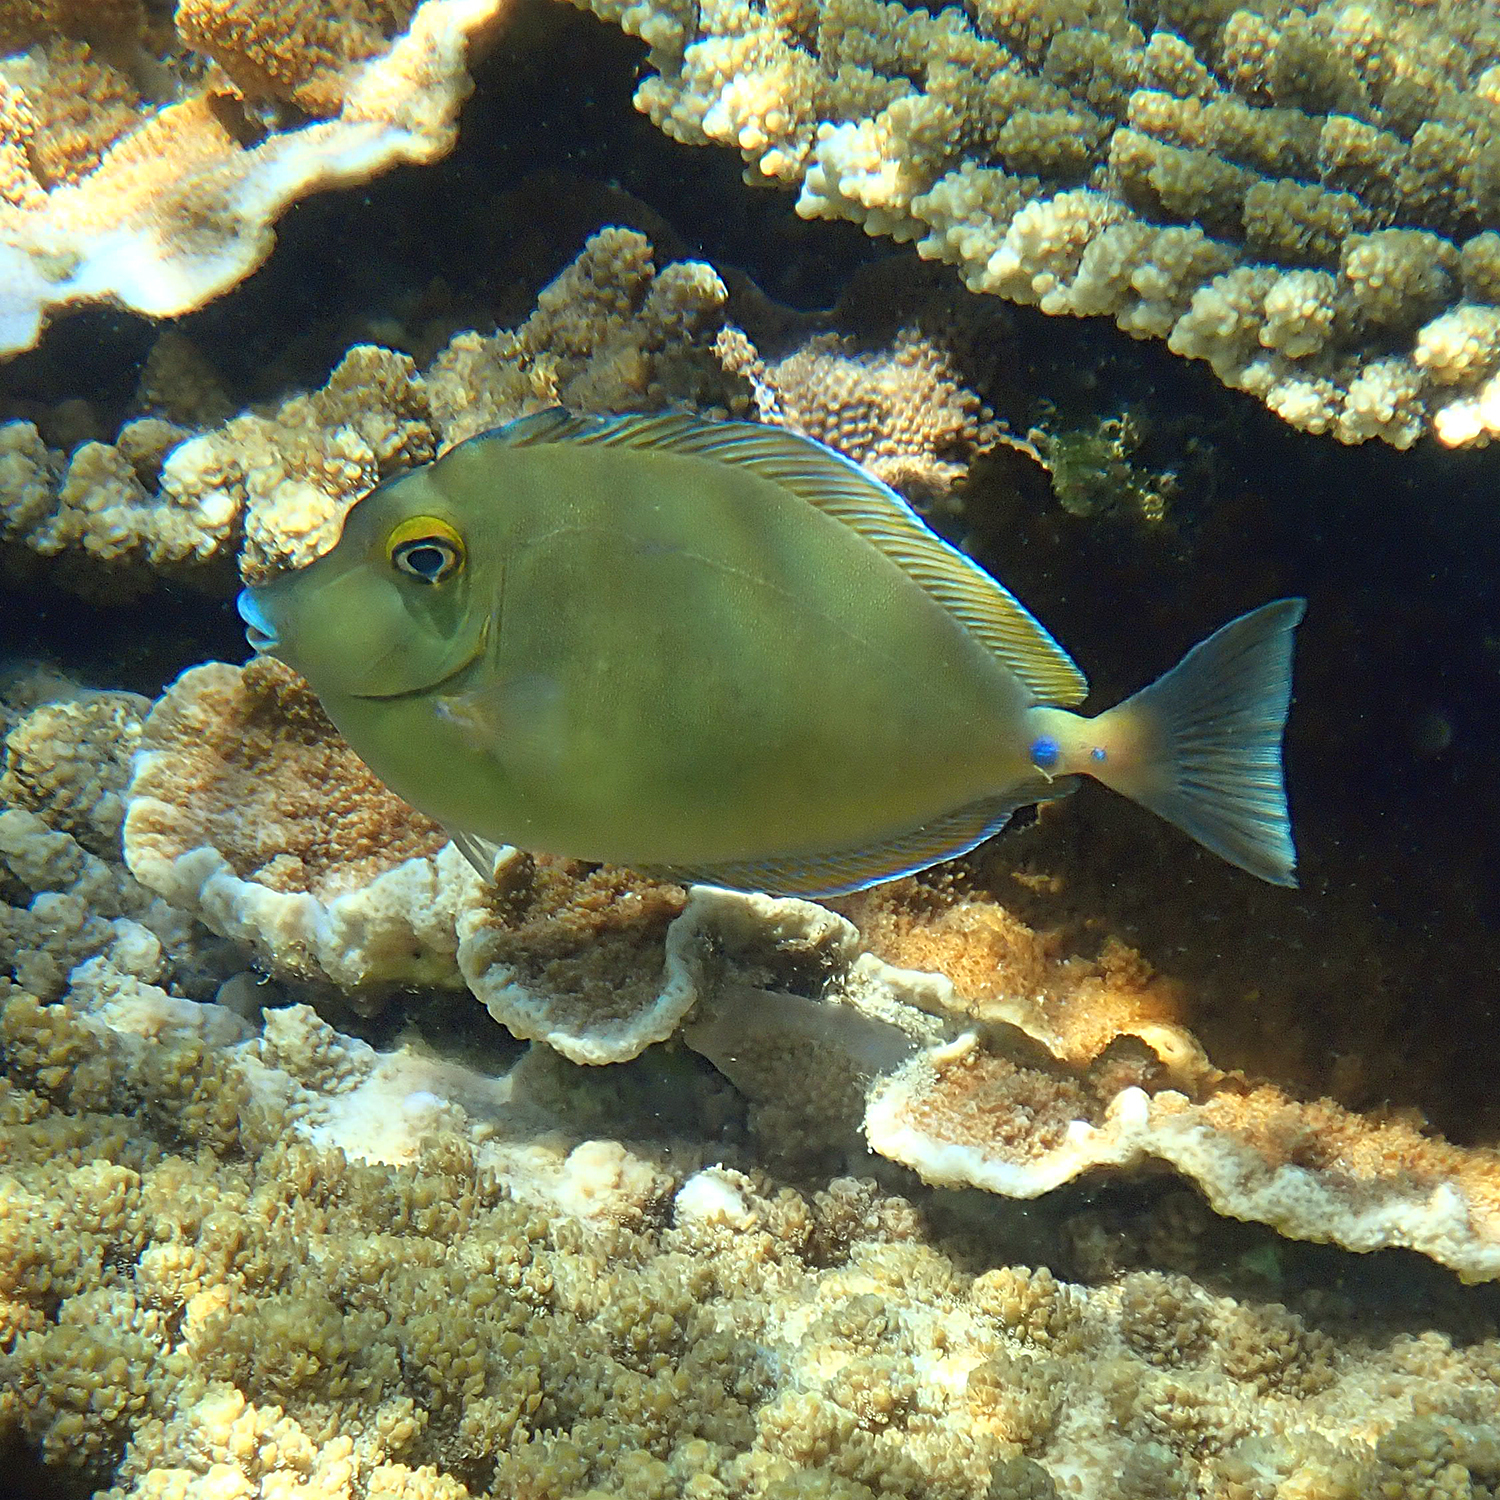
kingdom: Animalia
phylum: Chordata
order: Perciformes
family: Acanthuridae
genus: Naso
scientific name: Naso unicornis
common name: Bluespine unicornfish
